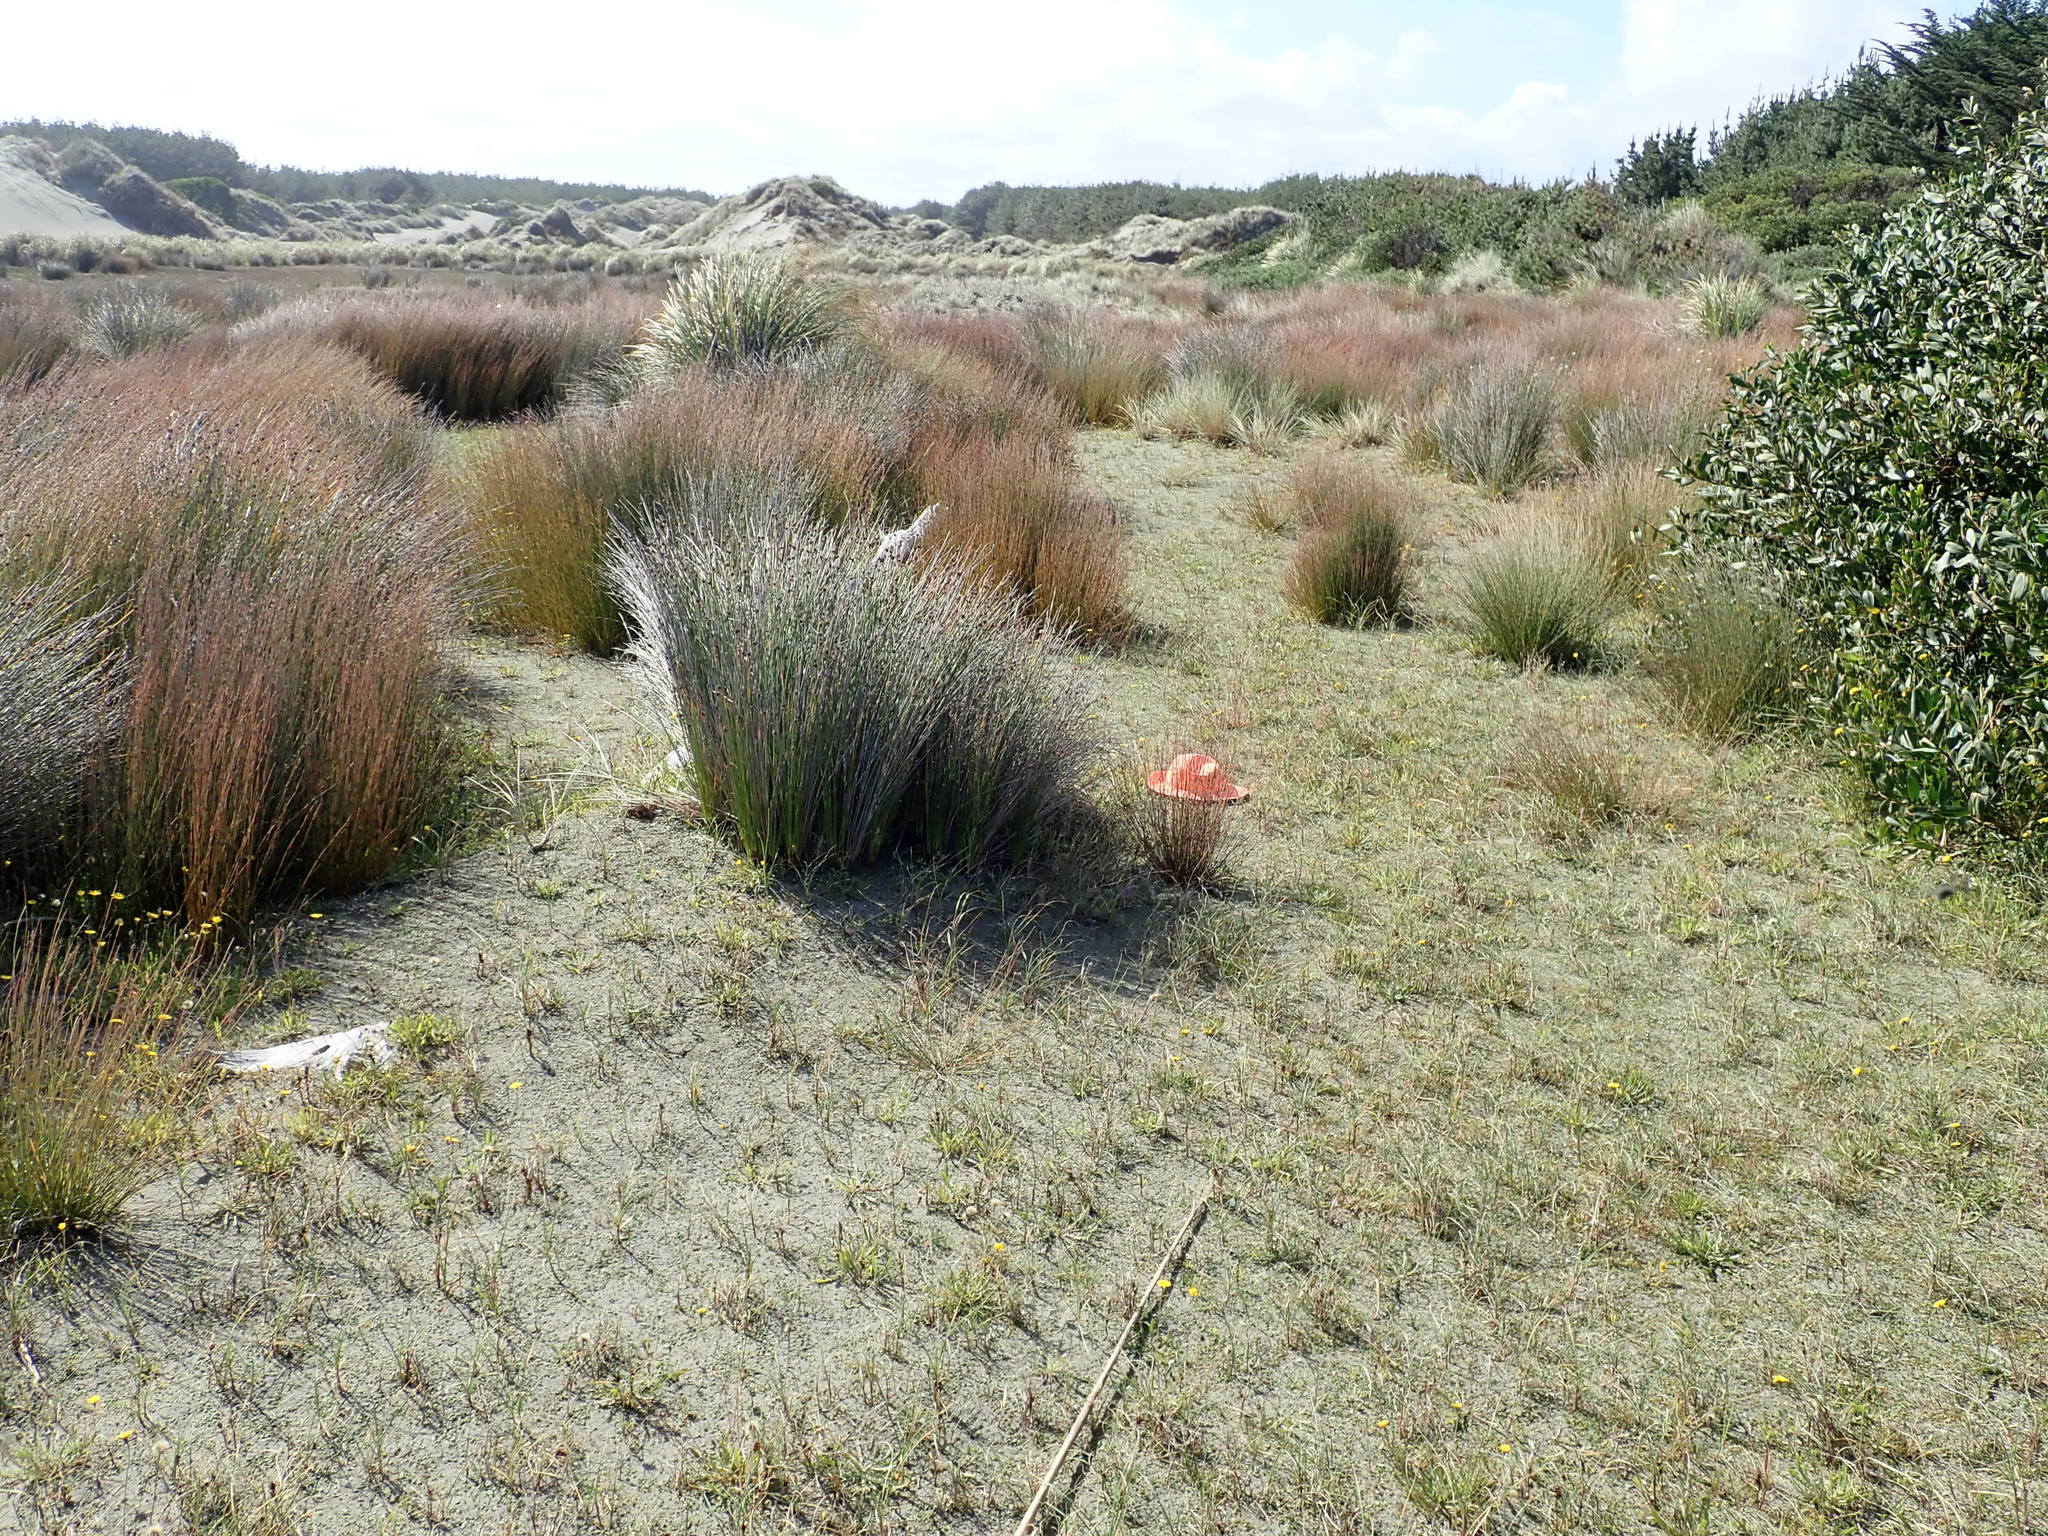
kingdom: Plantae
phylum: Tracheophyta
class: Magnoliopsida
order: Saxifragales
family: Haloragaceae
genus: Myriophyllum
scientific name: Myriophyllum votschii
